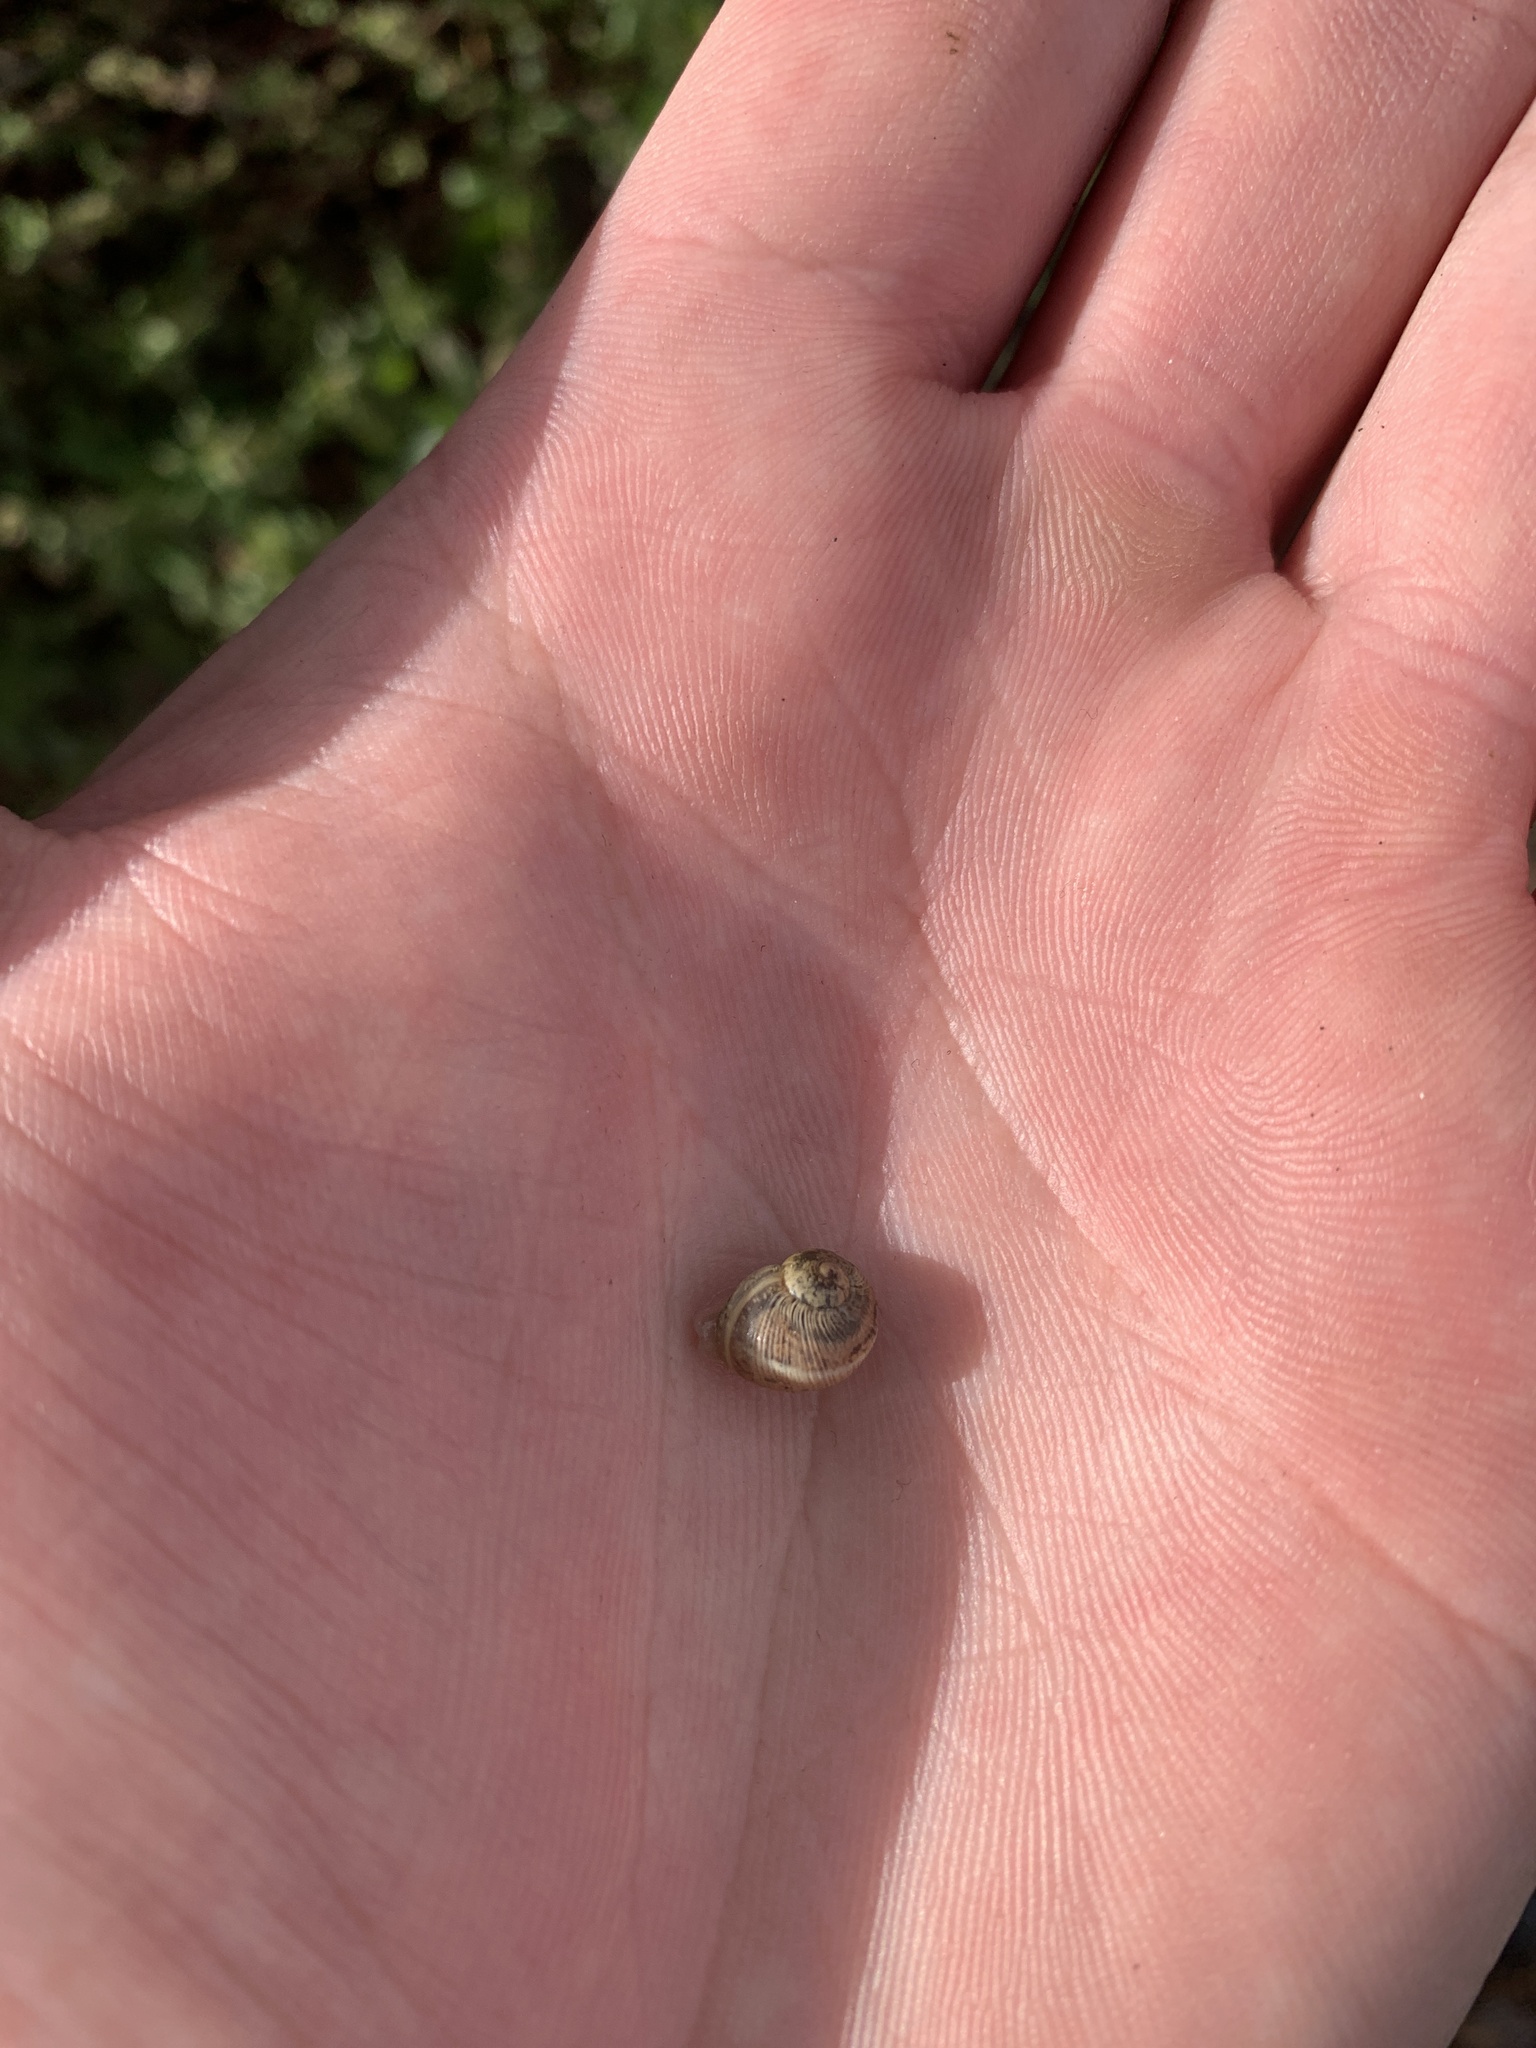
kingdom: Animalia
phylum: Mollusca
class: Gastropoda
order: Stylommatophora
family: Helicidae
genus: Cornu
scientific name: Cornu aspersum
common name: Brown garden snail
